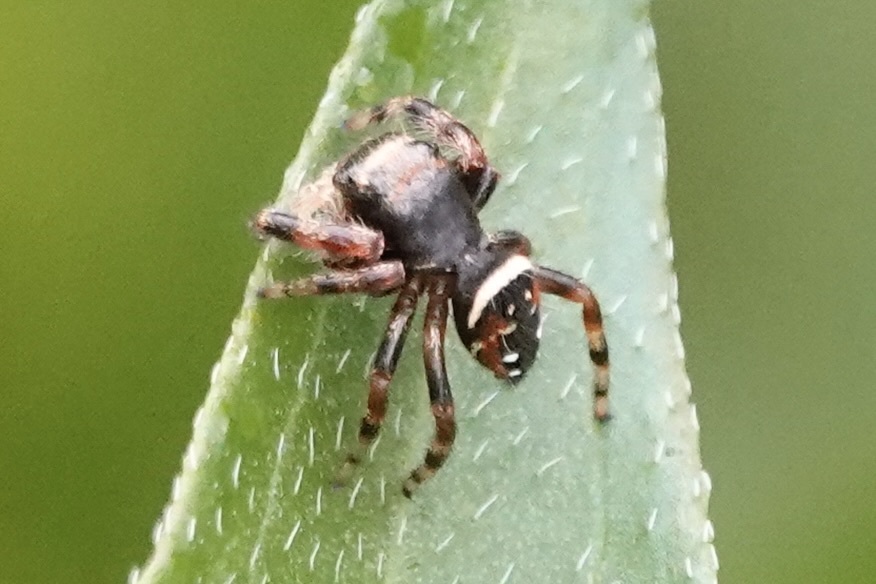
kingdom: Animalia
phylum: Arthropoda
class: Arachnida
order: Araneae
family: Salticidae
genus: Phidippus
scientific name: Phidippus clarus
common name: Brilliant jumping spider
